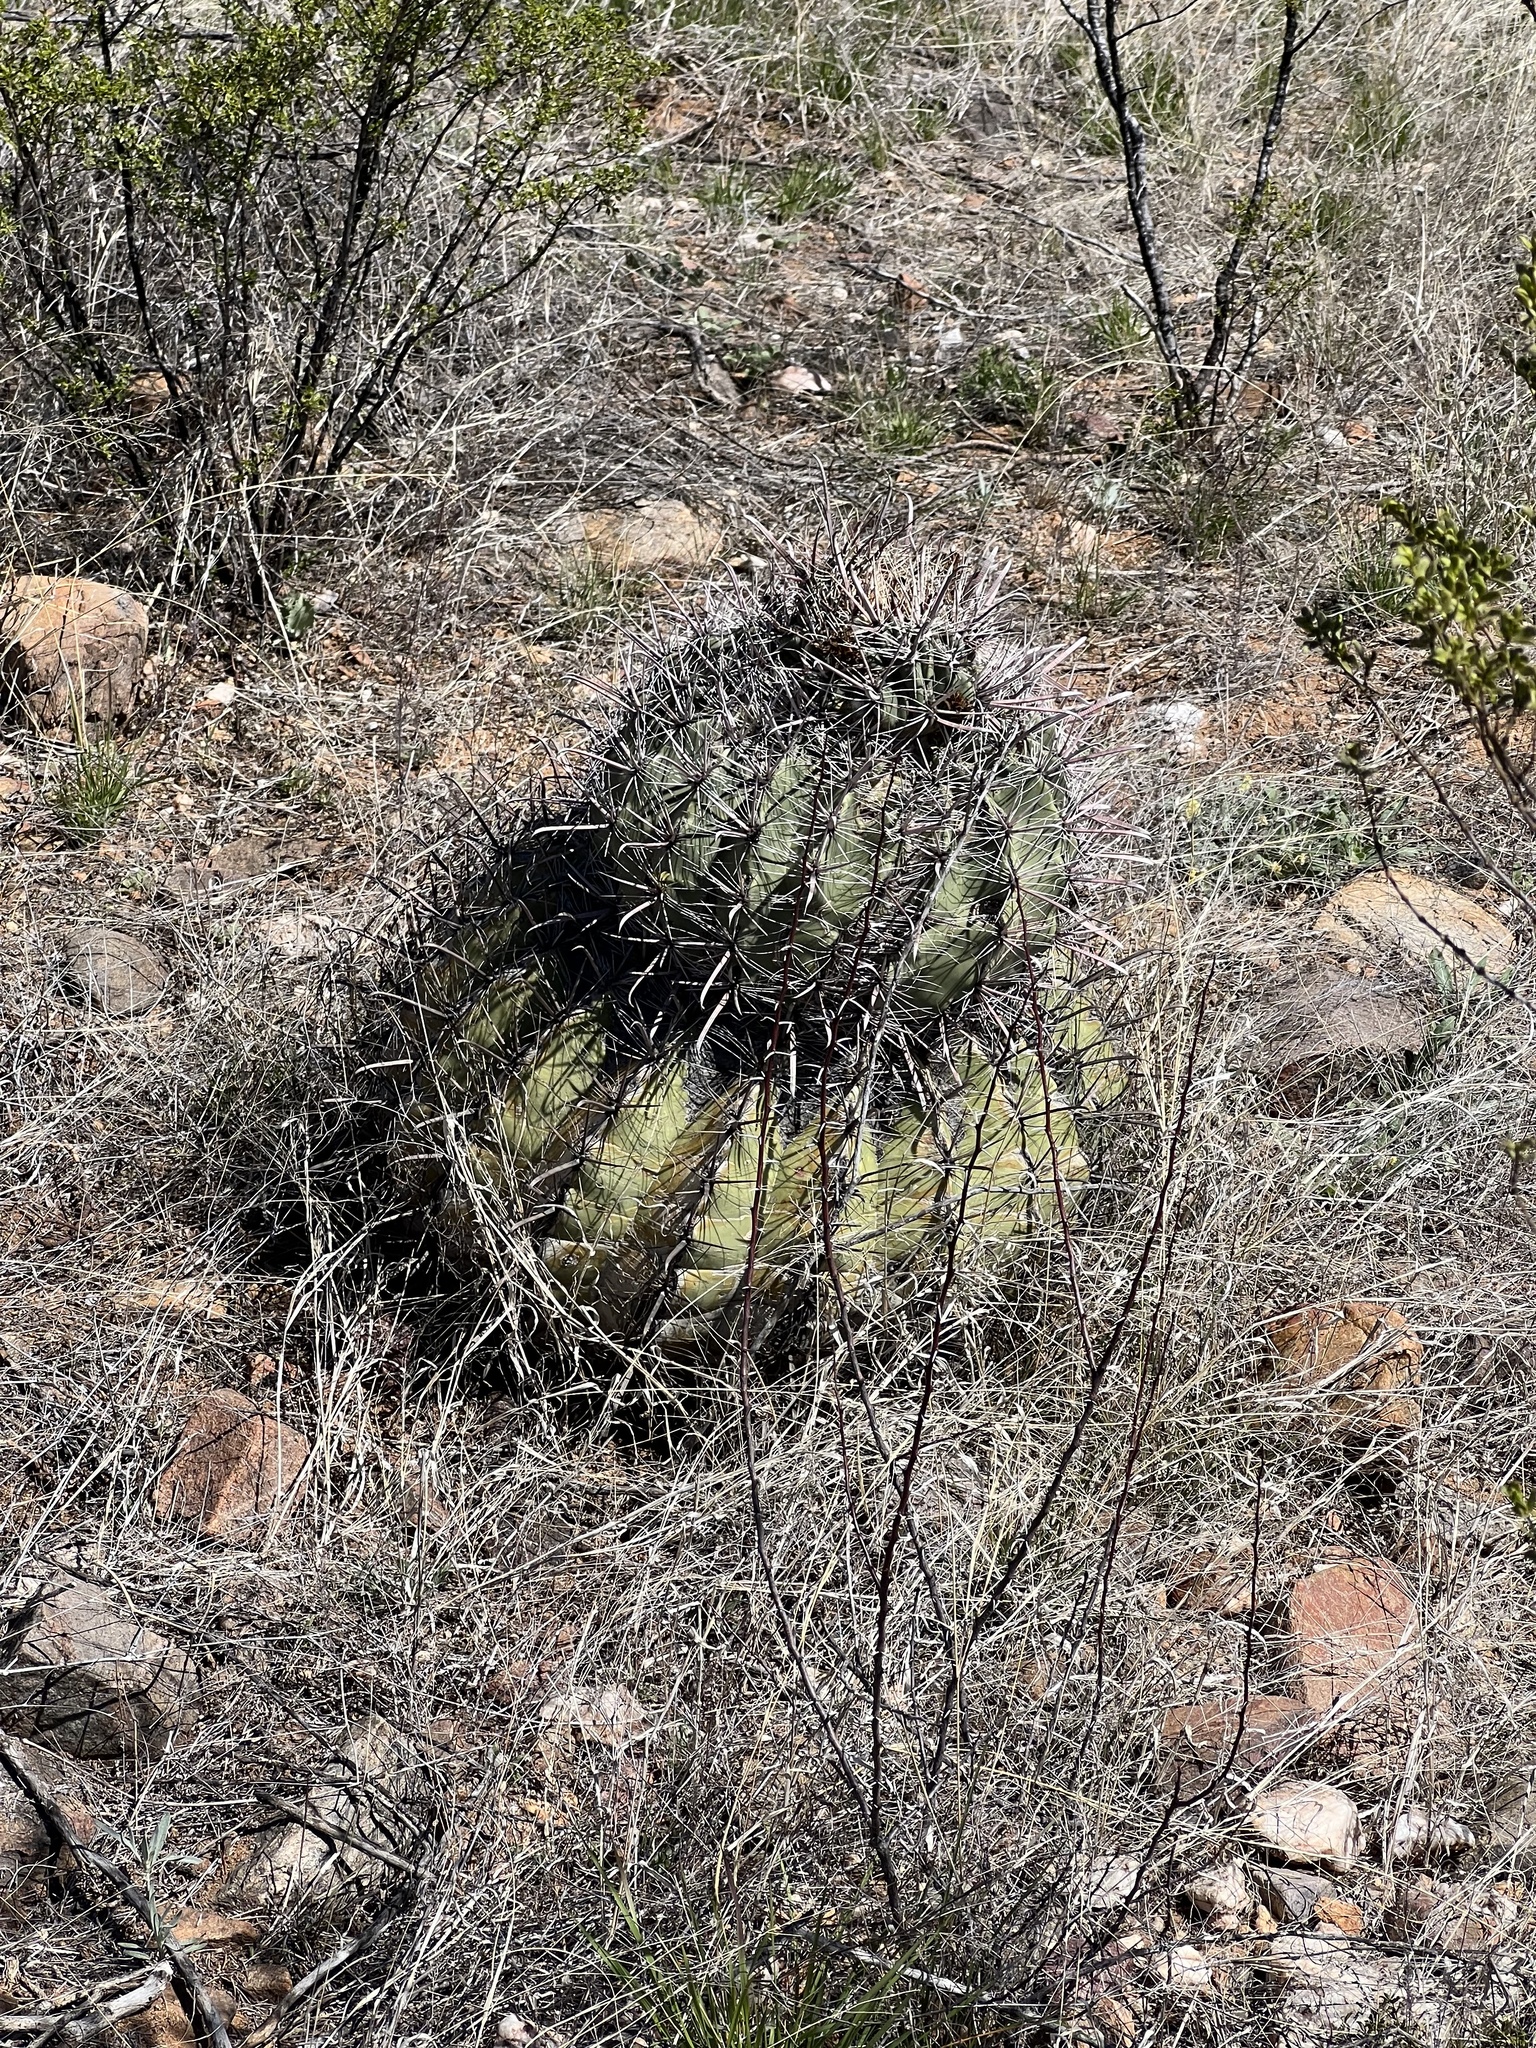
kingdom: Plantae
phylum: Tracheophyta
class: Magnoliopsida
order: Caryophyllales
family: Cactaceae
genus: Ferocactus
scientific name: Ferocactus wislizeni
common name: Candy barrel cactus
